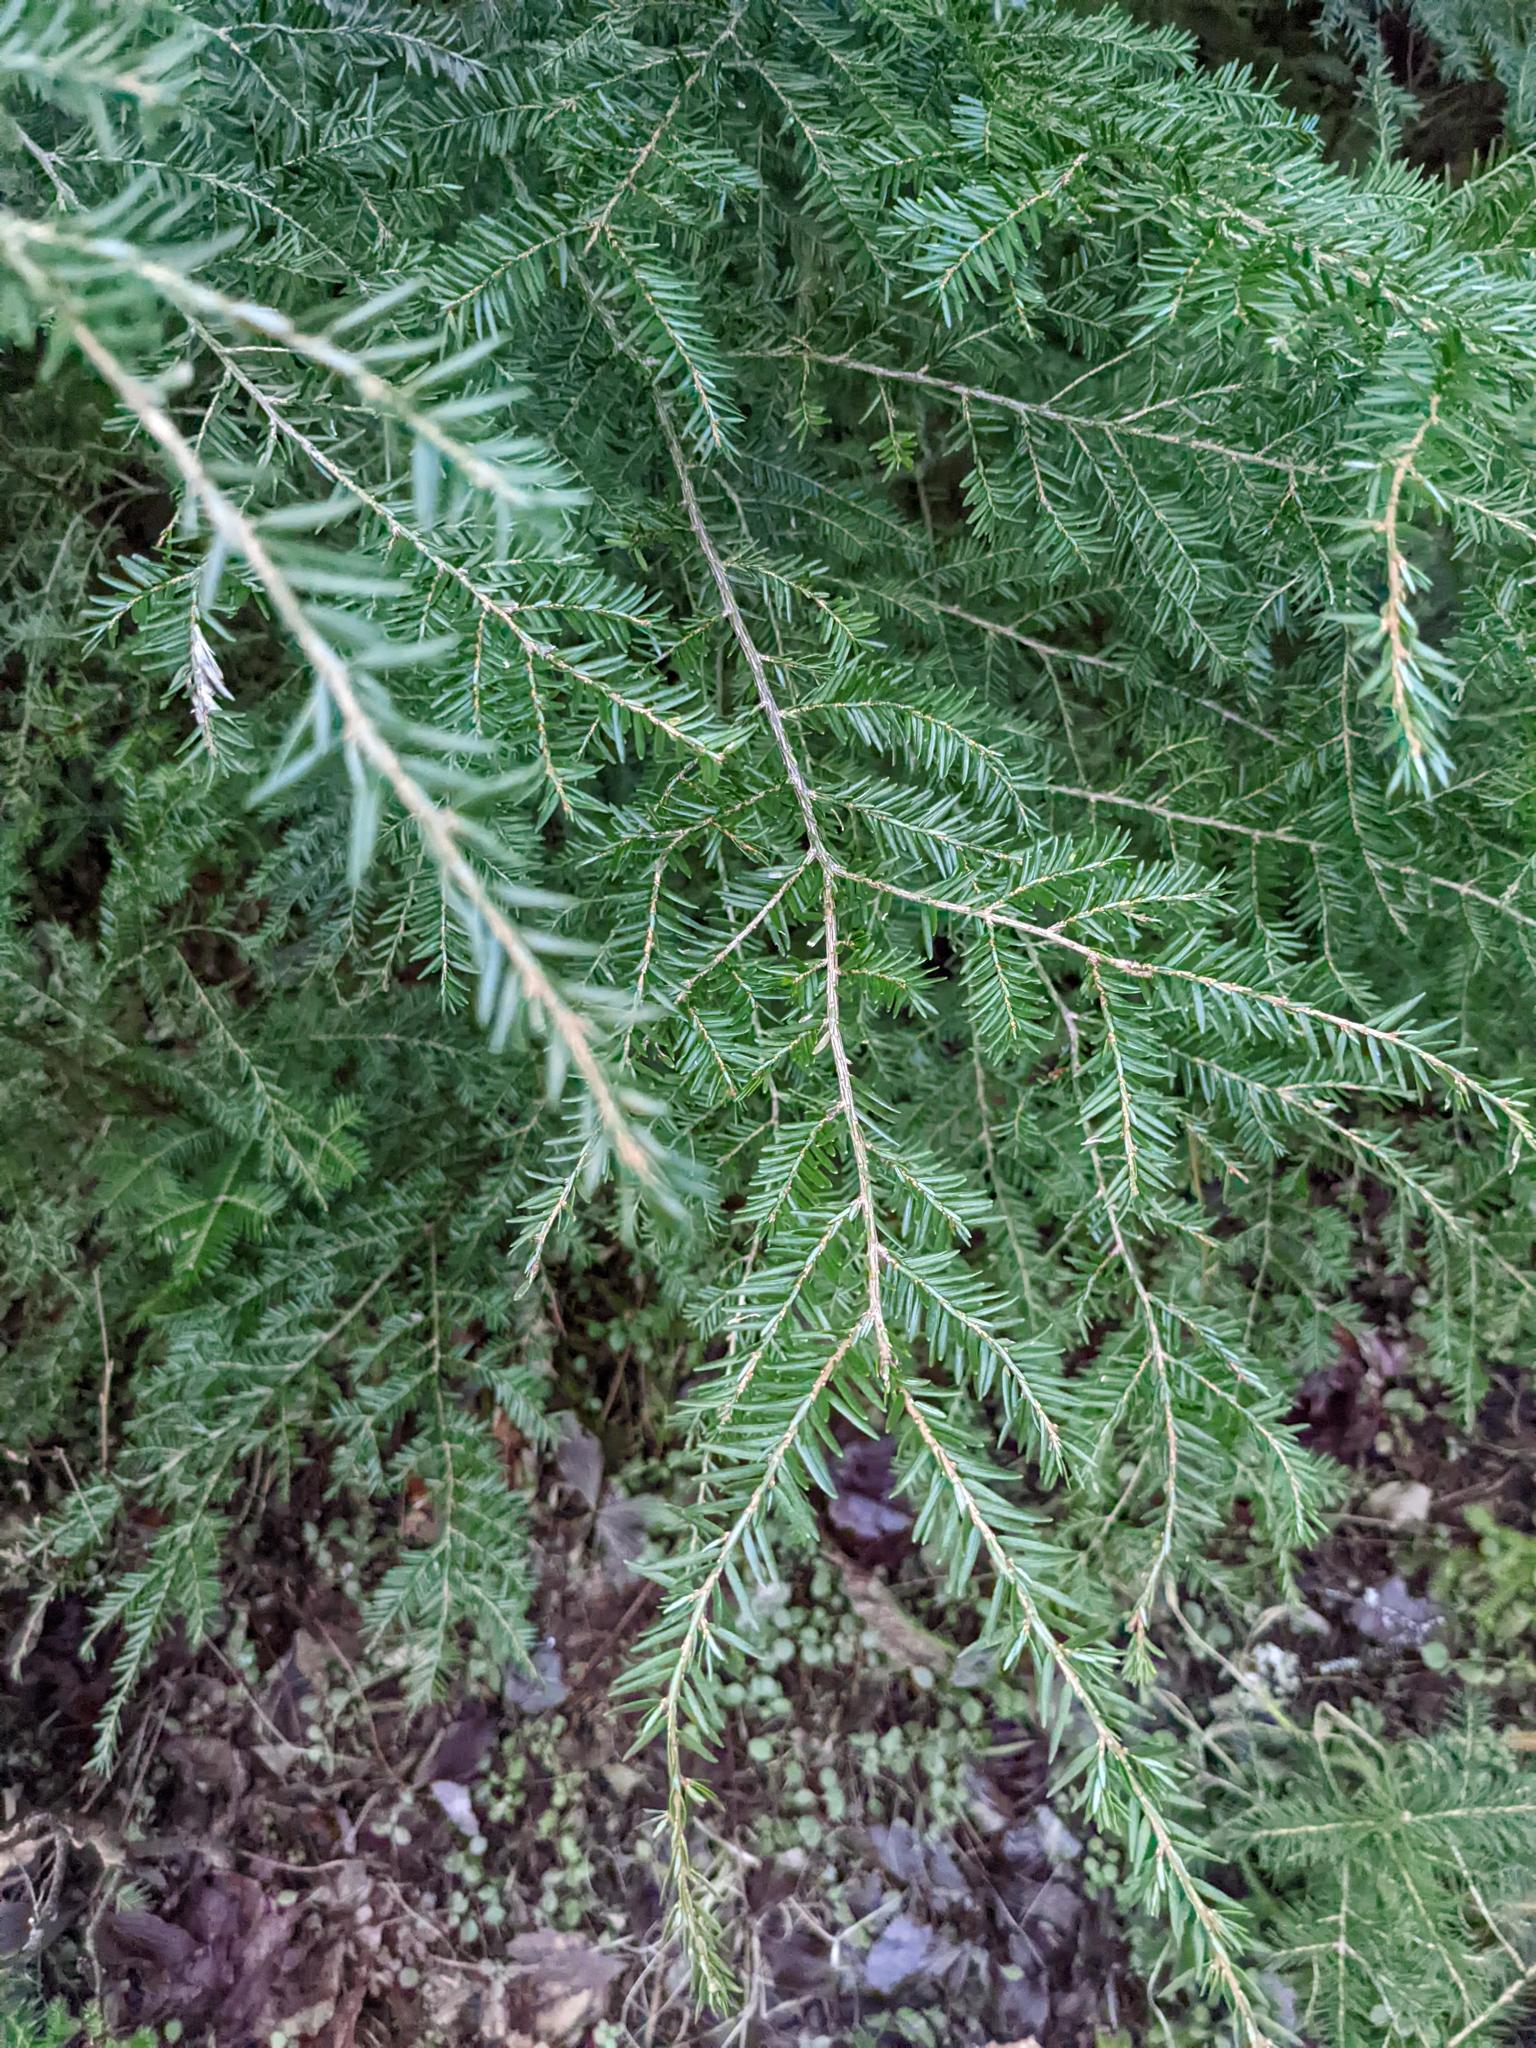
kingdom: Plantae
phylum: Tracheophyta
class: Pinopsida
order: Pinales
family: Pinaceae
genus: Tsuga
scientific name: Tsuga canadensis
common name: Eastern hemlock
